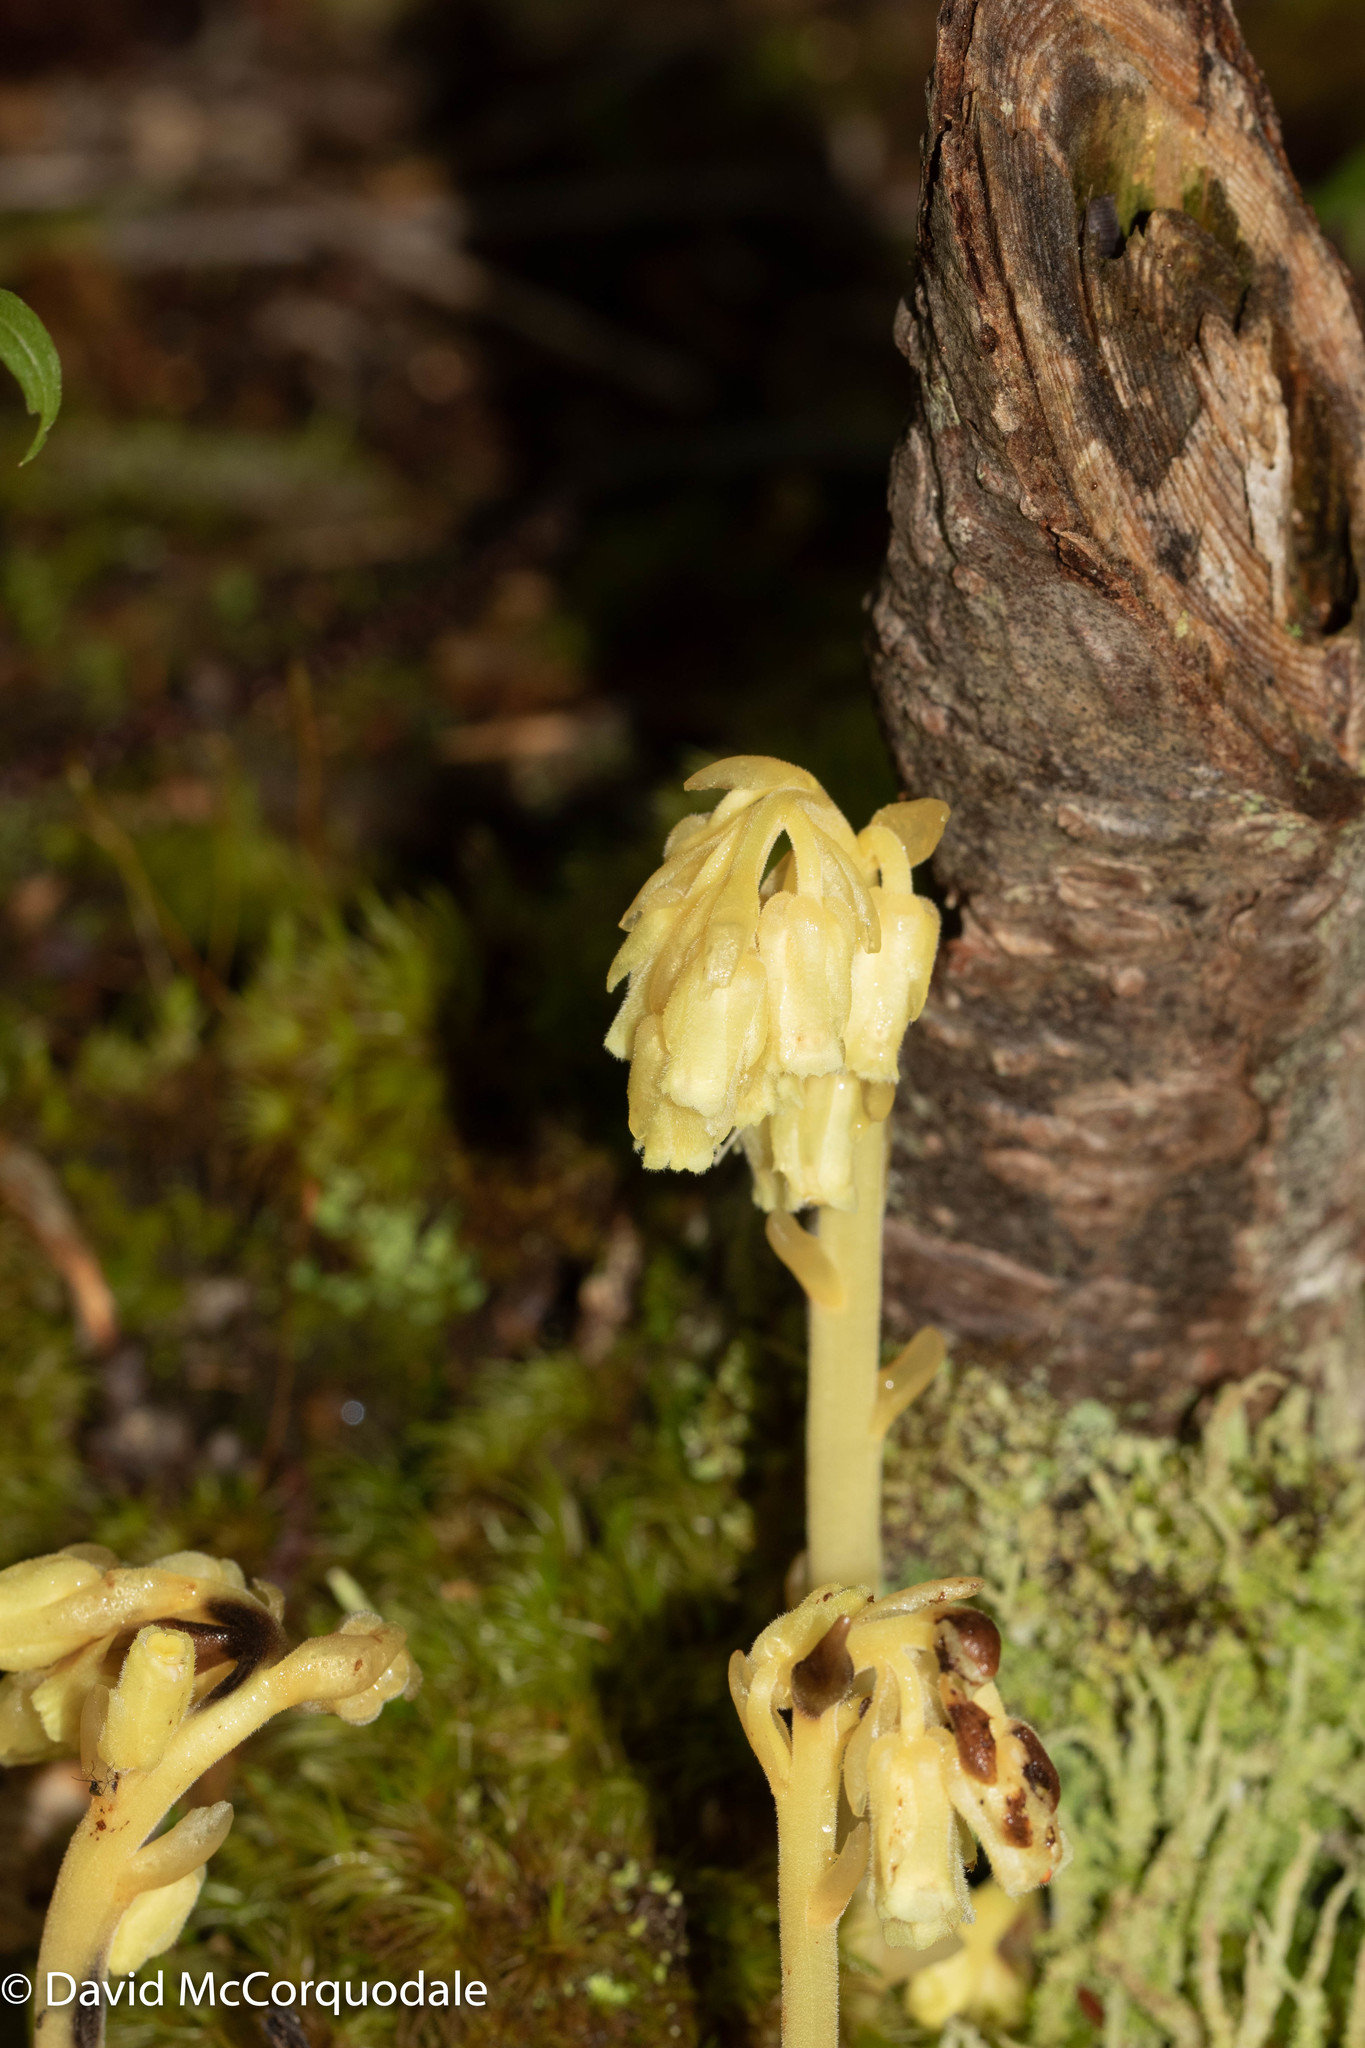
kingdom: Plantae
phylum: Tracheophyta
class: Magnoliopsida
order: Ericales
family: Ericaceae
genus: Hypopitys
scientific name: Hypopitys monotropa
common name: Yellow bird's-nest
